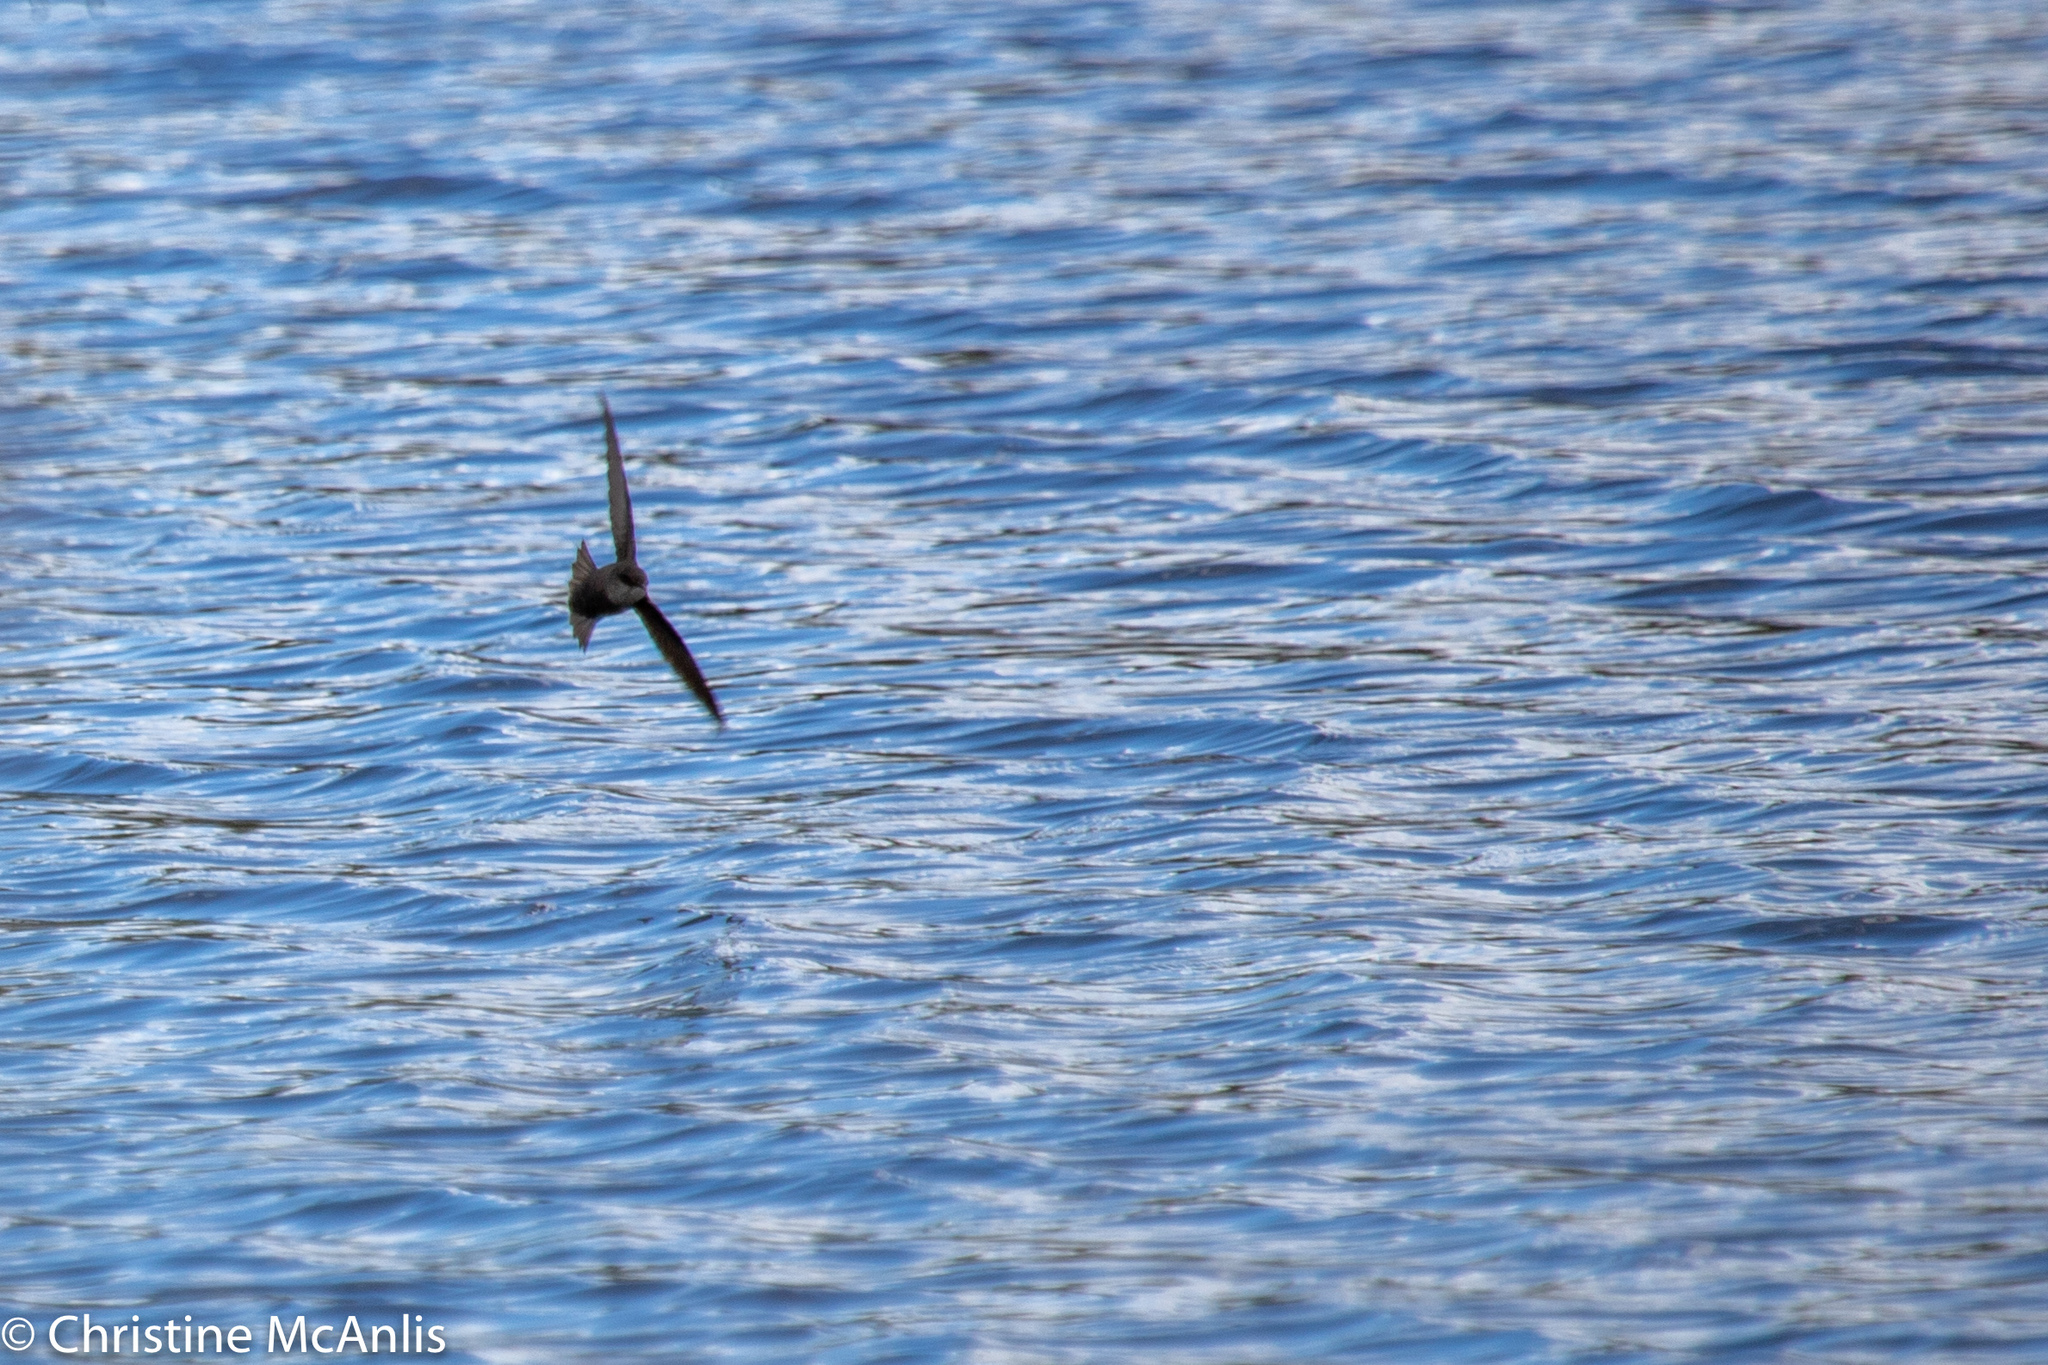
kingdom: Animalia
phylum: Chordata
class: Aves
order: Apodiformes
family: Apodidae
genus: Chaetura
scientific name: Chaetura pelagica
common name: Chimney swift
